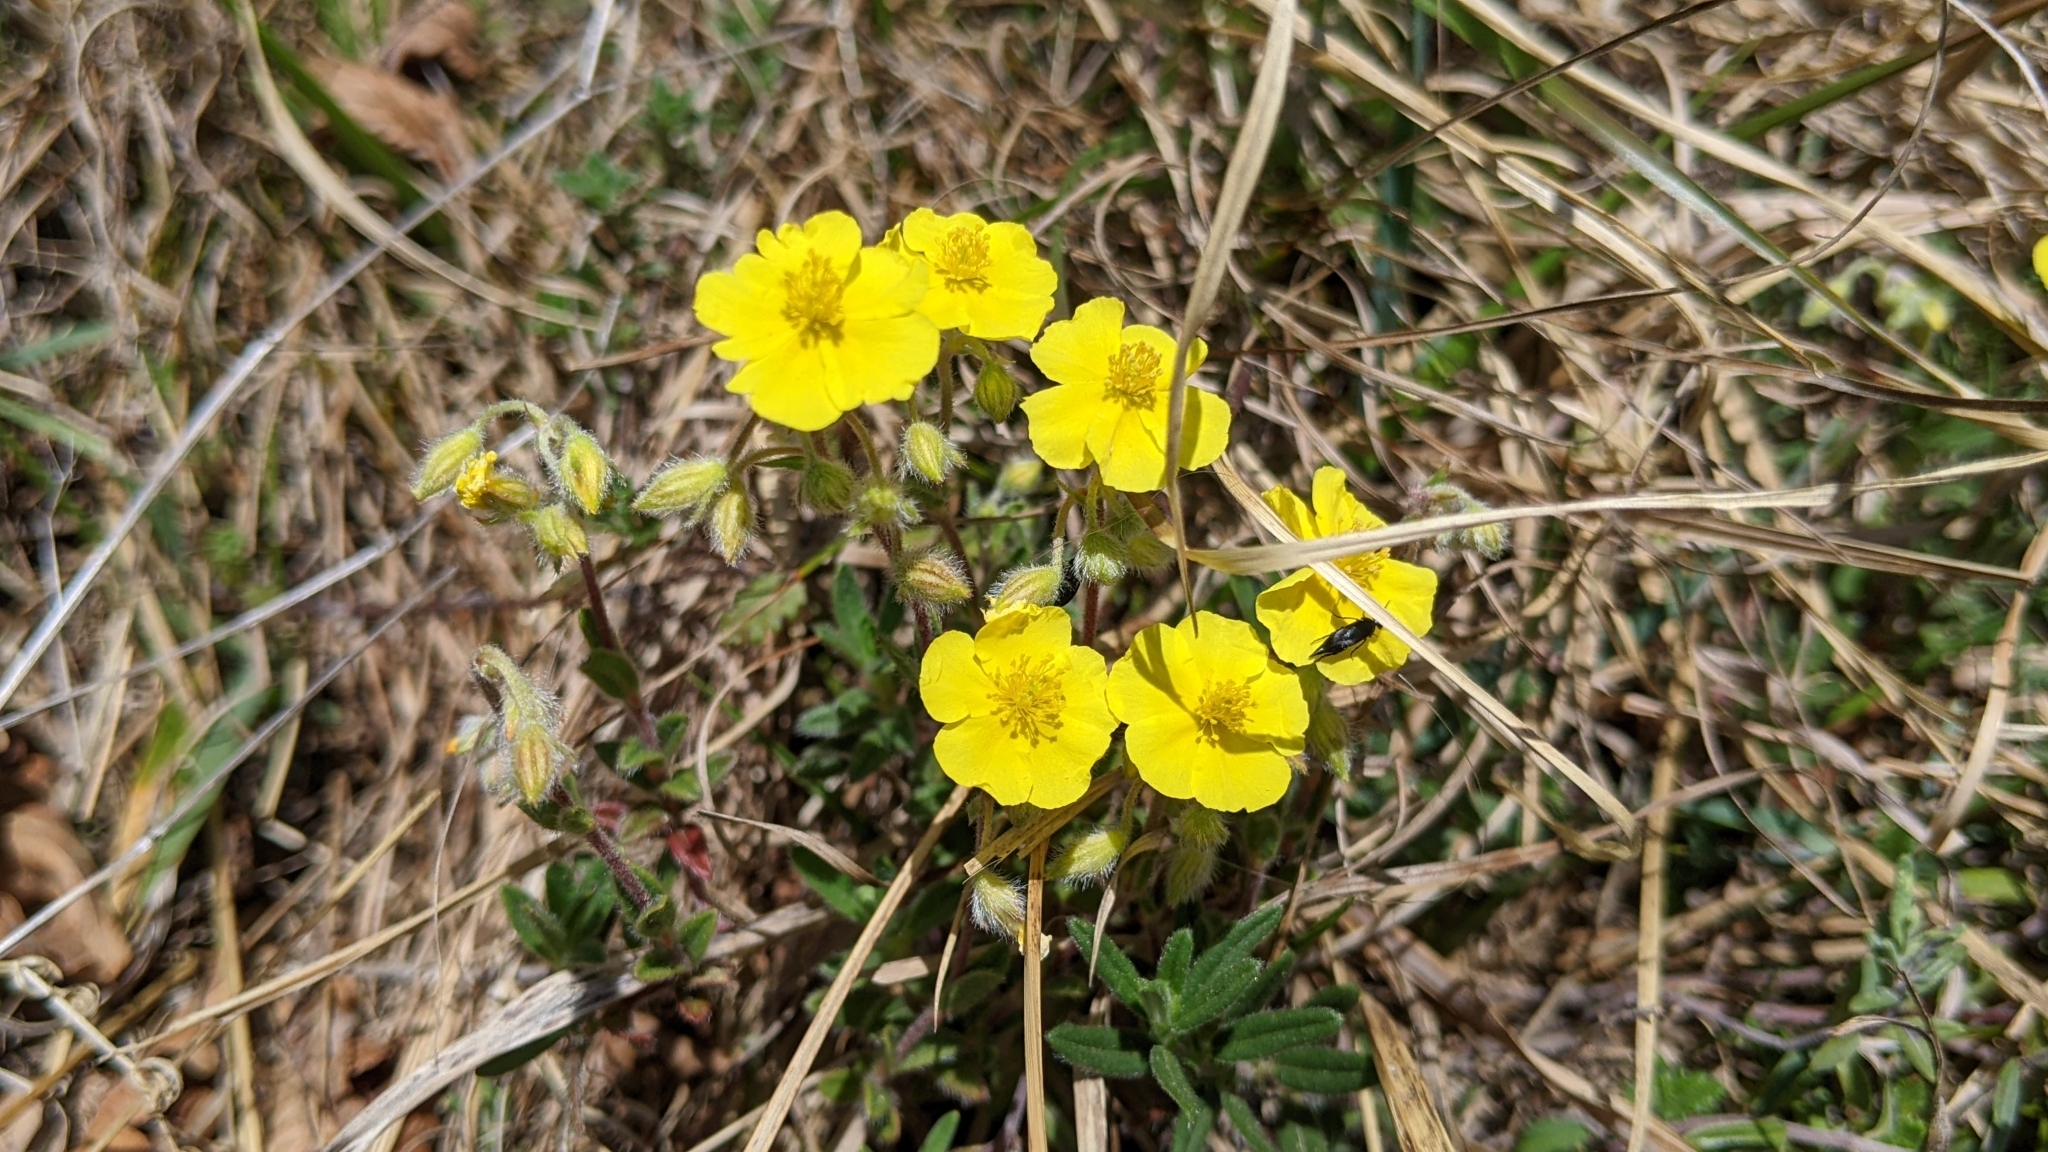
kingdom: Plantae
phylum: Tracheophyta
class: Magnoliopsida
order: Malvales
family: Cistaceae
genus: Helianthemum
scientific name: Helianthemum nummularium
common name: Common rock-rose
